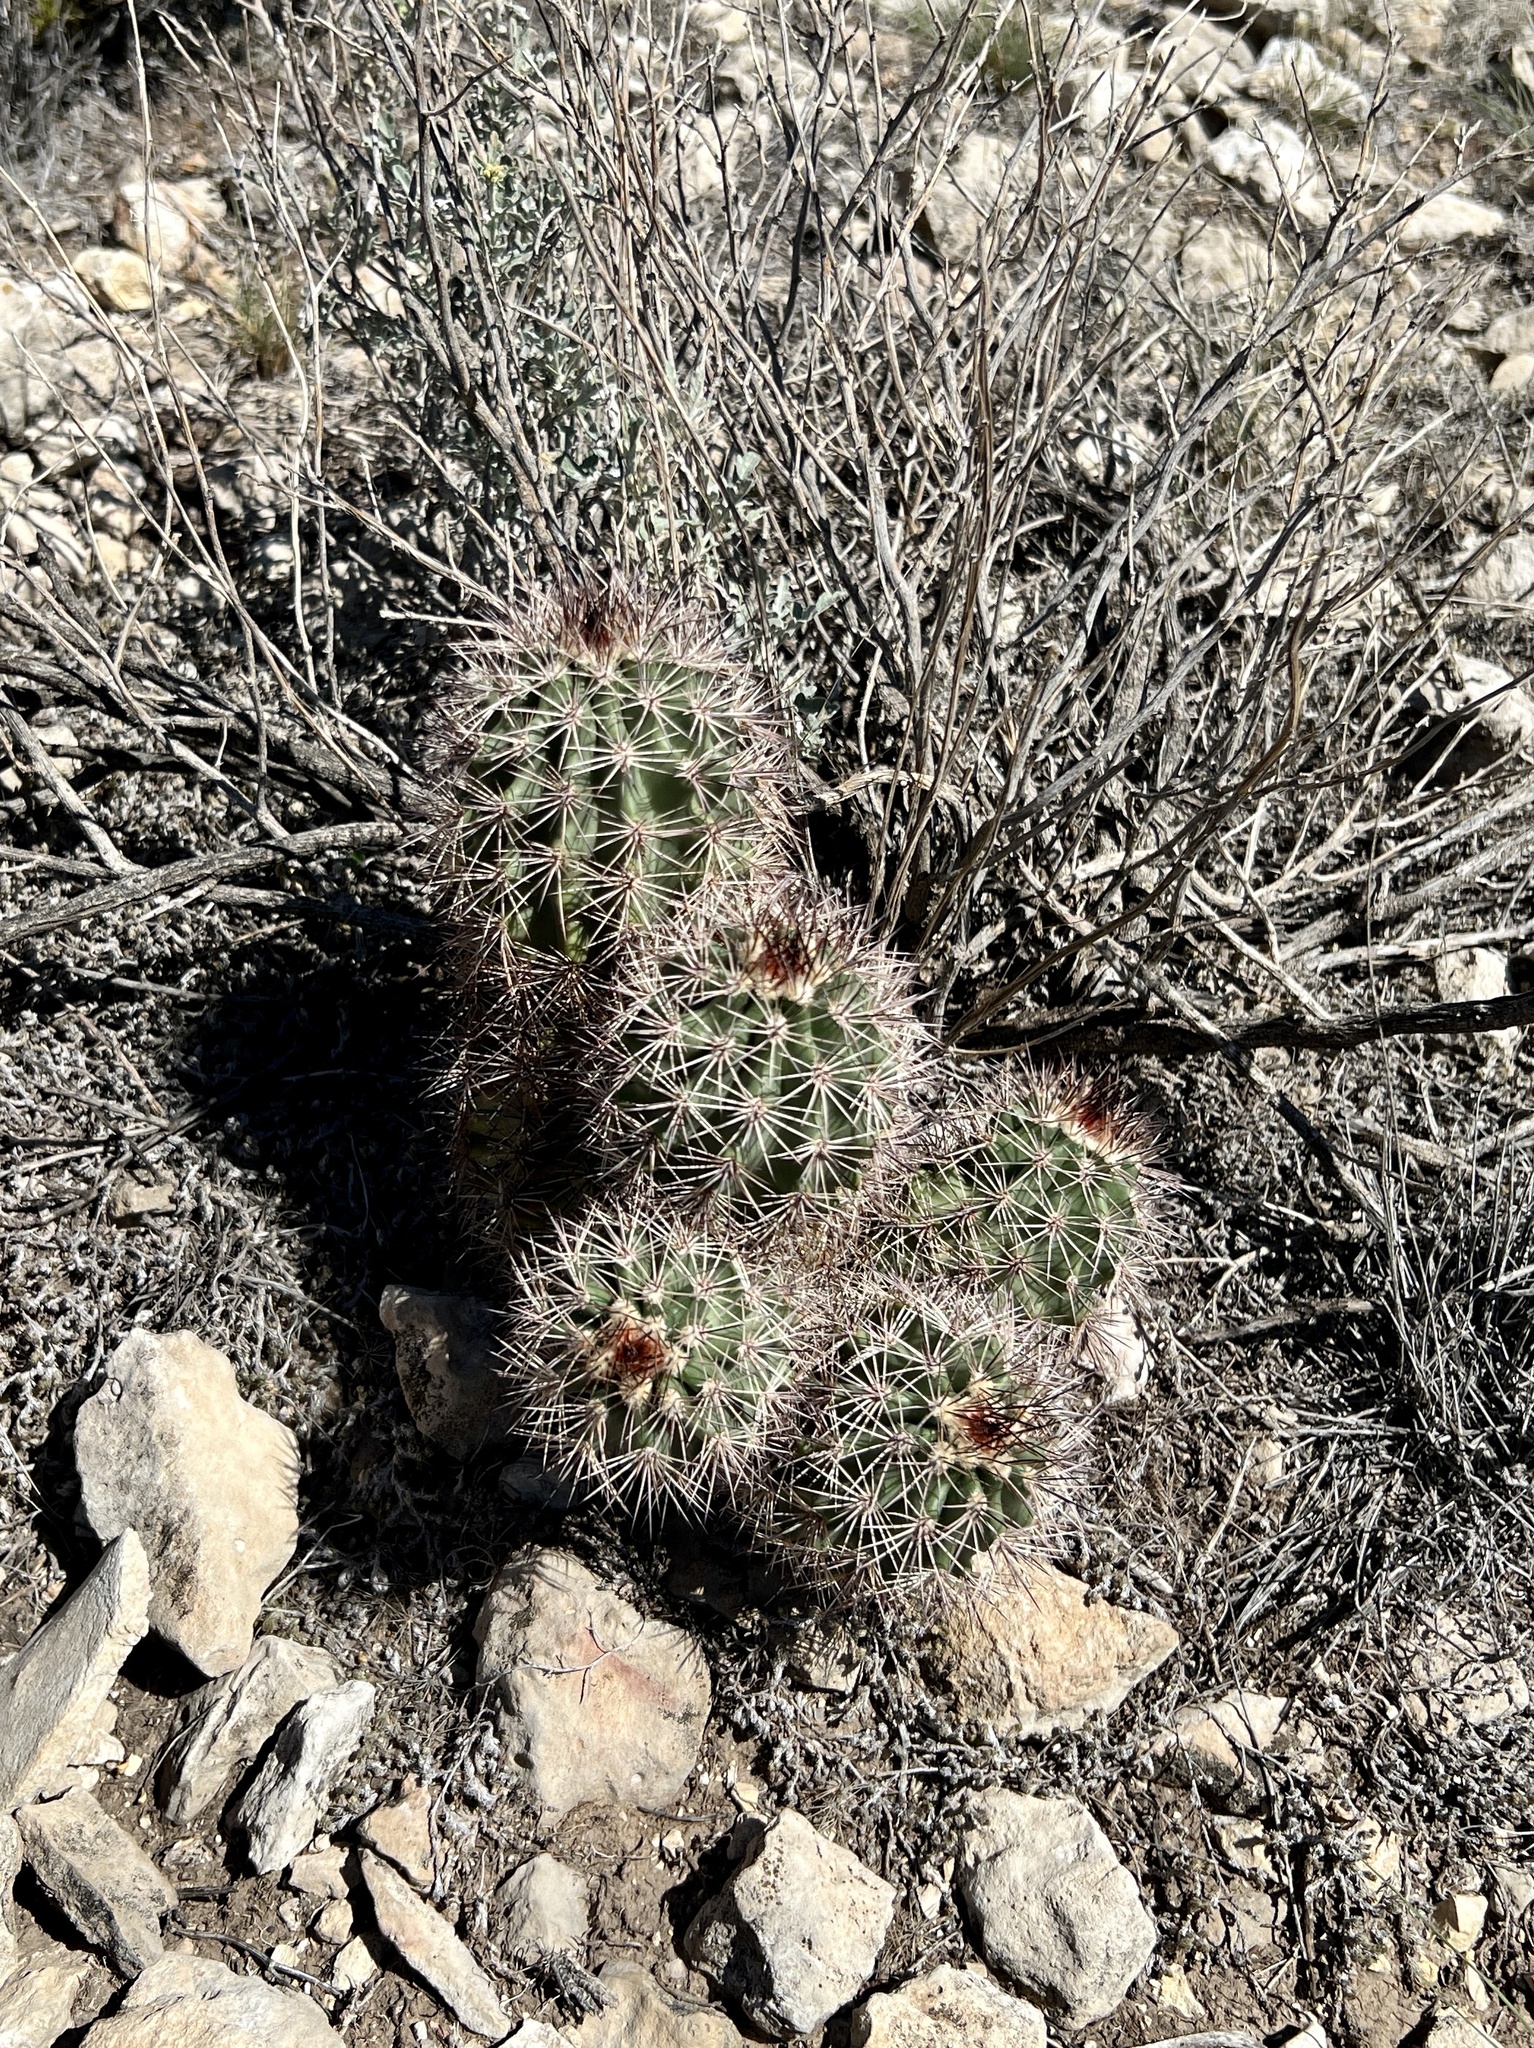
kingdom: Plantae
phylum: Tracheophyta
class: Magnoliopsida
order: Caryophyllales
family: Cactaceae
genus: Echinocereus
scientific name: Echinocereus roetteri
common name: Lloyd's hedgehog cactus
